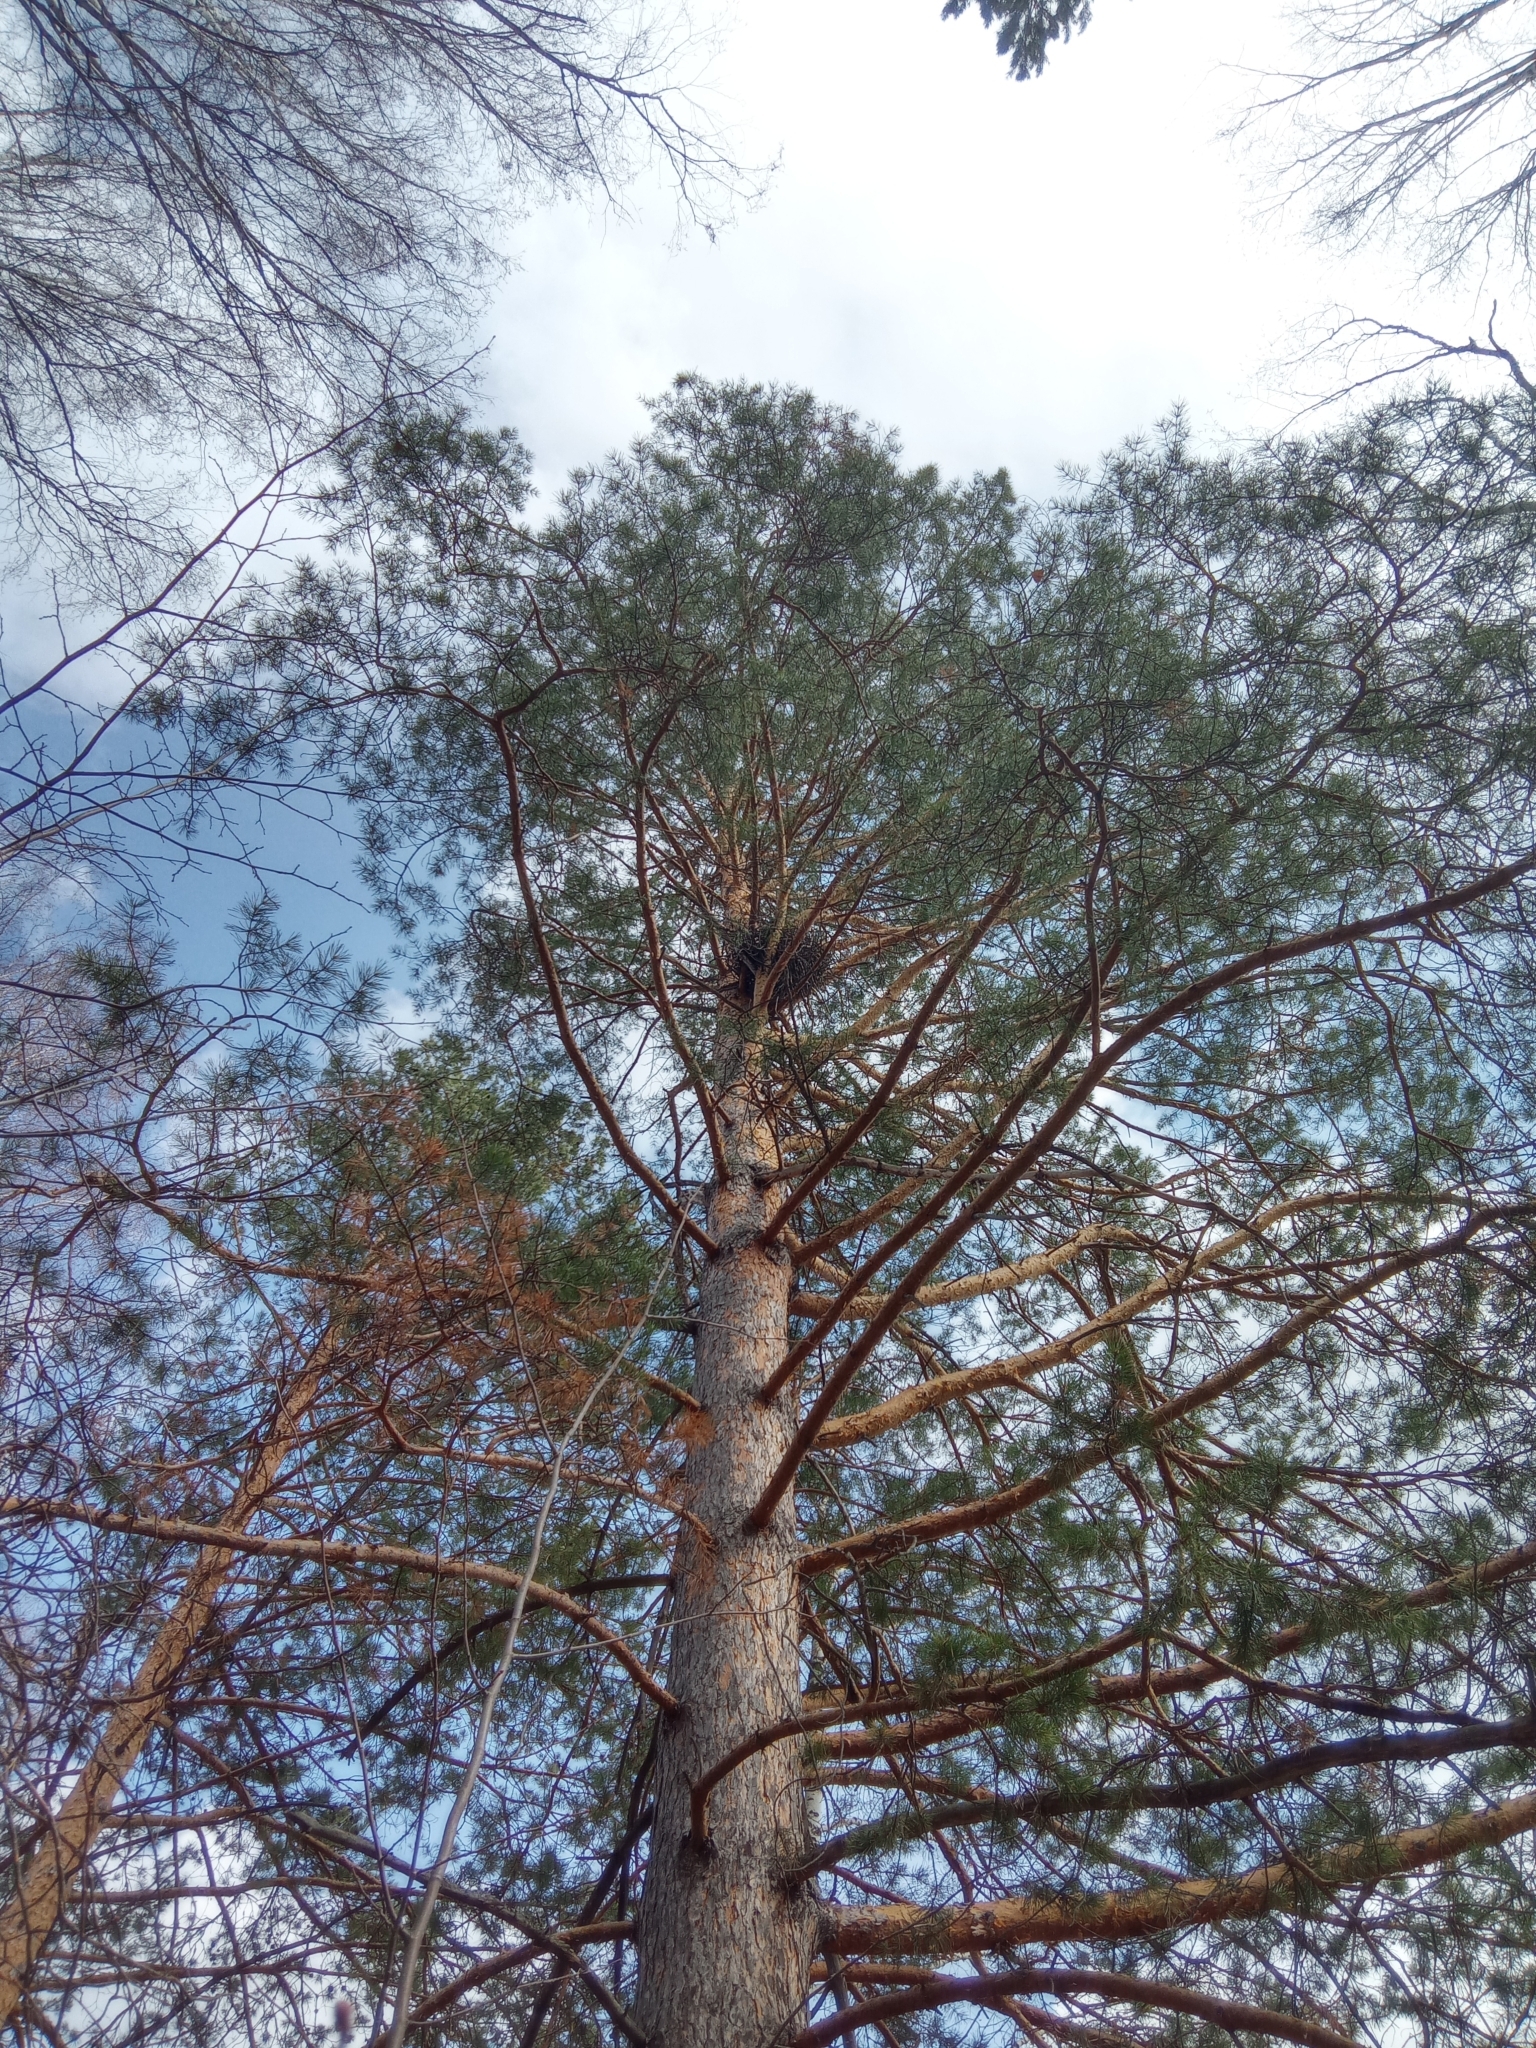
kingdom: Plantae
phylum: Tracheophyta
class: Pinopsida
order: Pinales
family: Pinaceae
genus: Pinus
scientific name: Pinus sylvestris
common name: Scots pine
